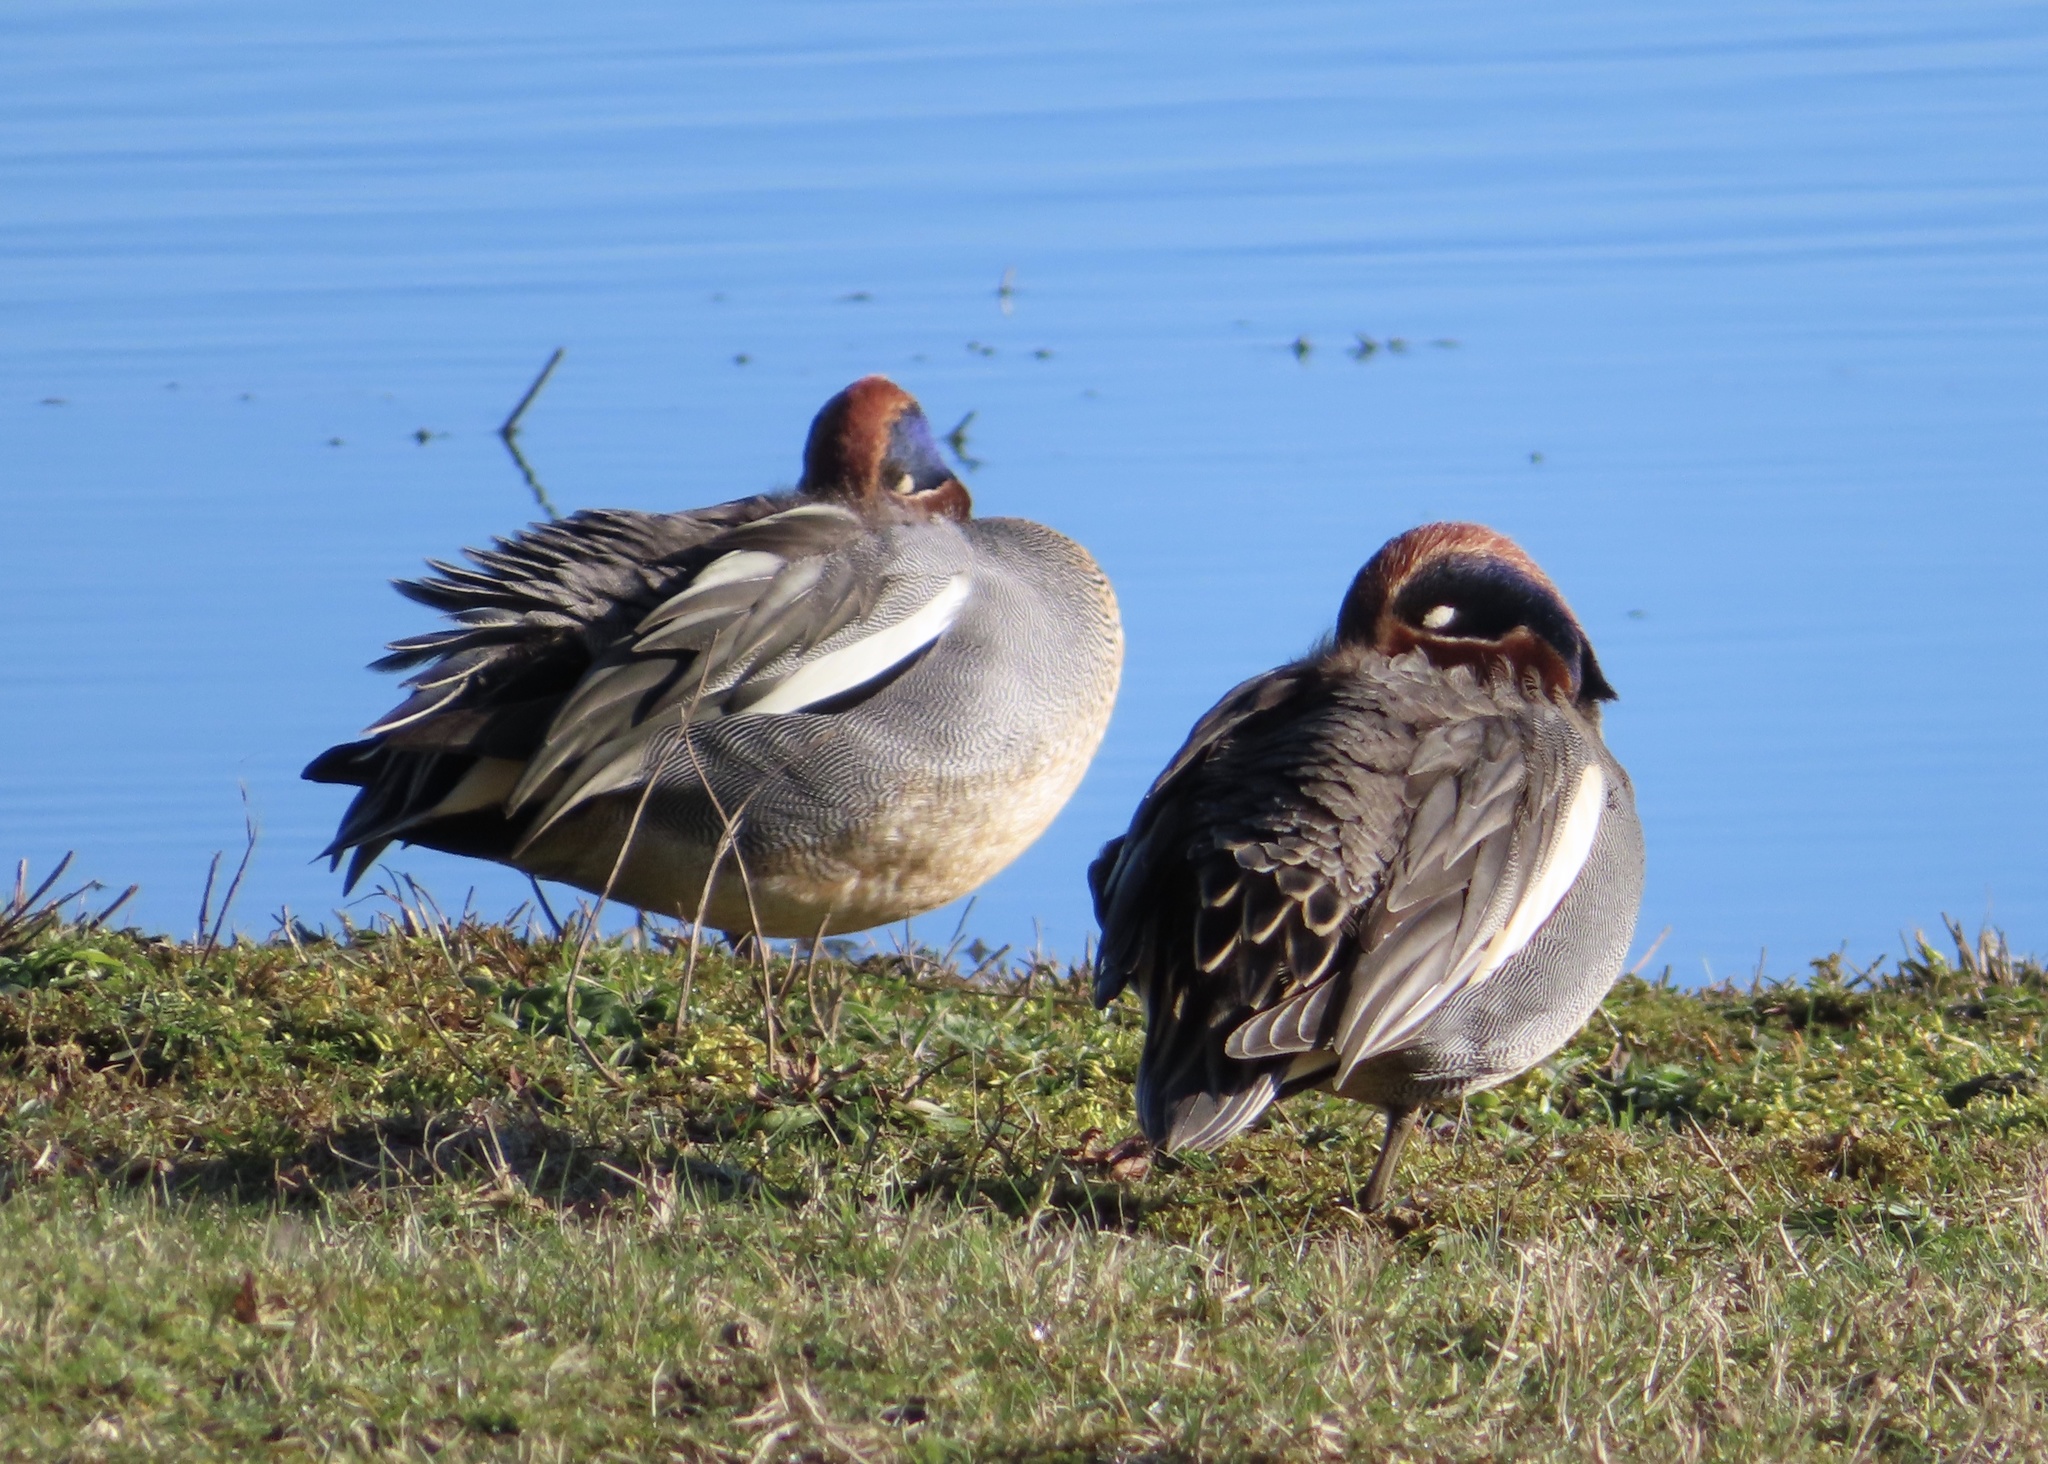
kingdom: Animalia
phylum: Chordata
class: Aves
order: Anseriformes
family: Anatidae
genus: Anas
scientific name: Anas crecca
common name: Eurasian teal
